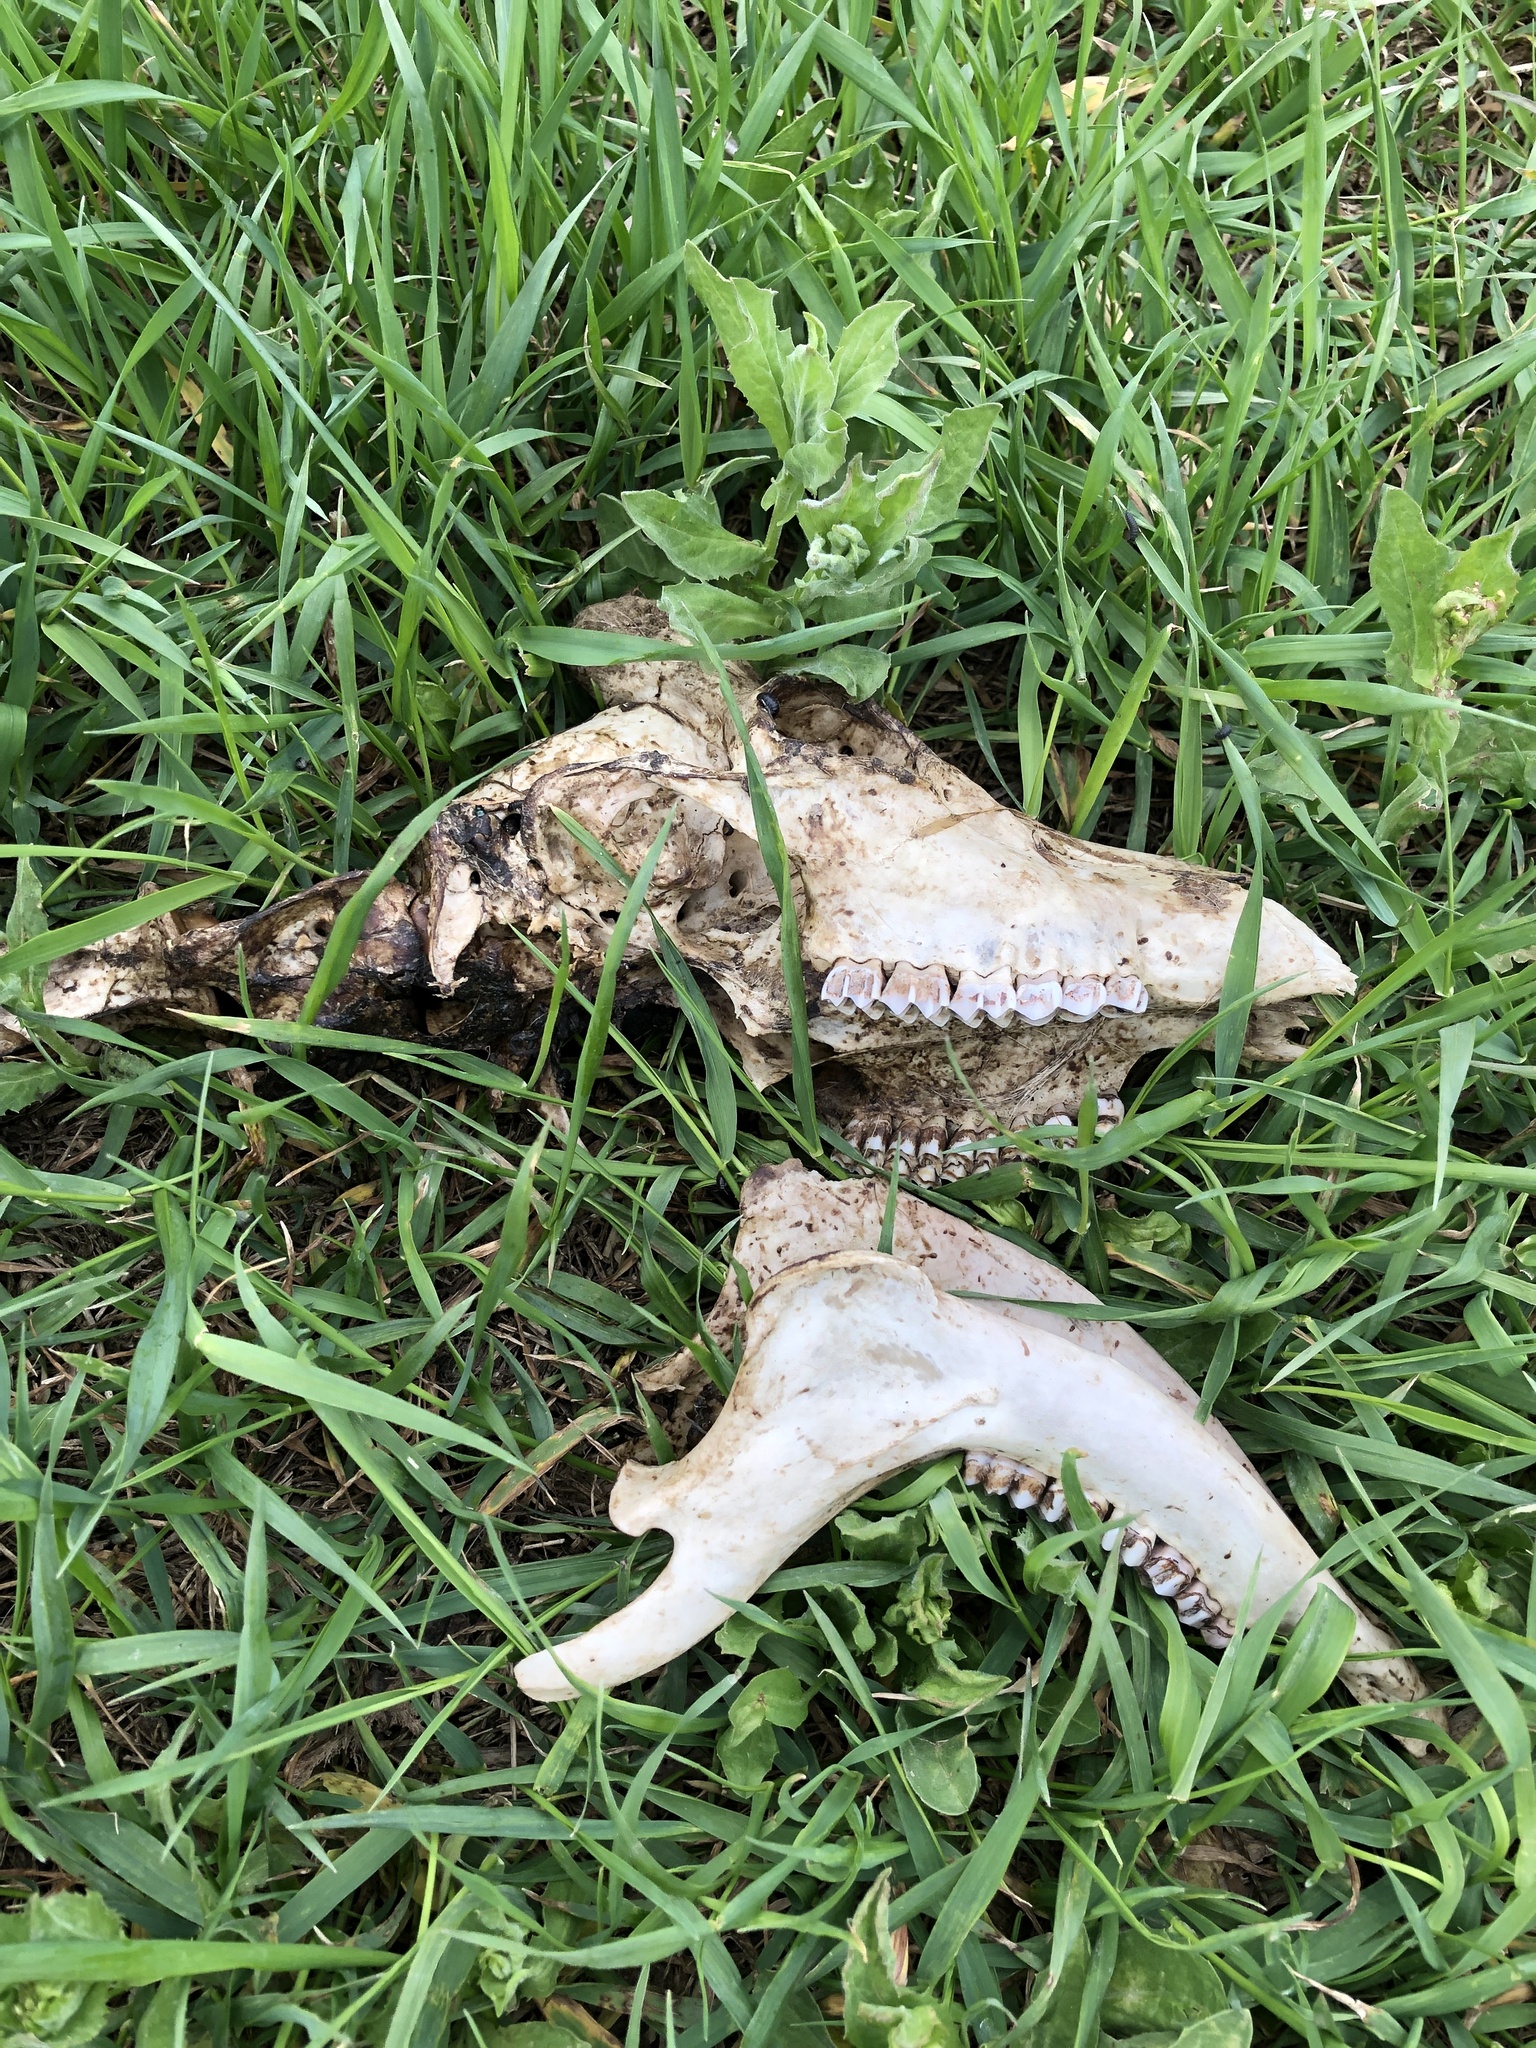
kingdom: Animalia
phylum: Chordata
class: Mammalia
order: Artiodactyla
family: Cervidae
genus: Capreolus
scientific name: Capreolus capreolus
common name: Western roe deer
